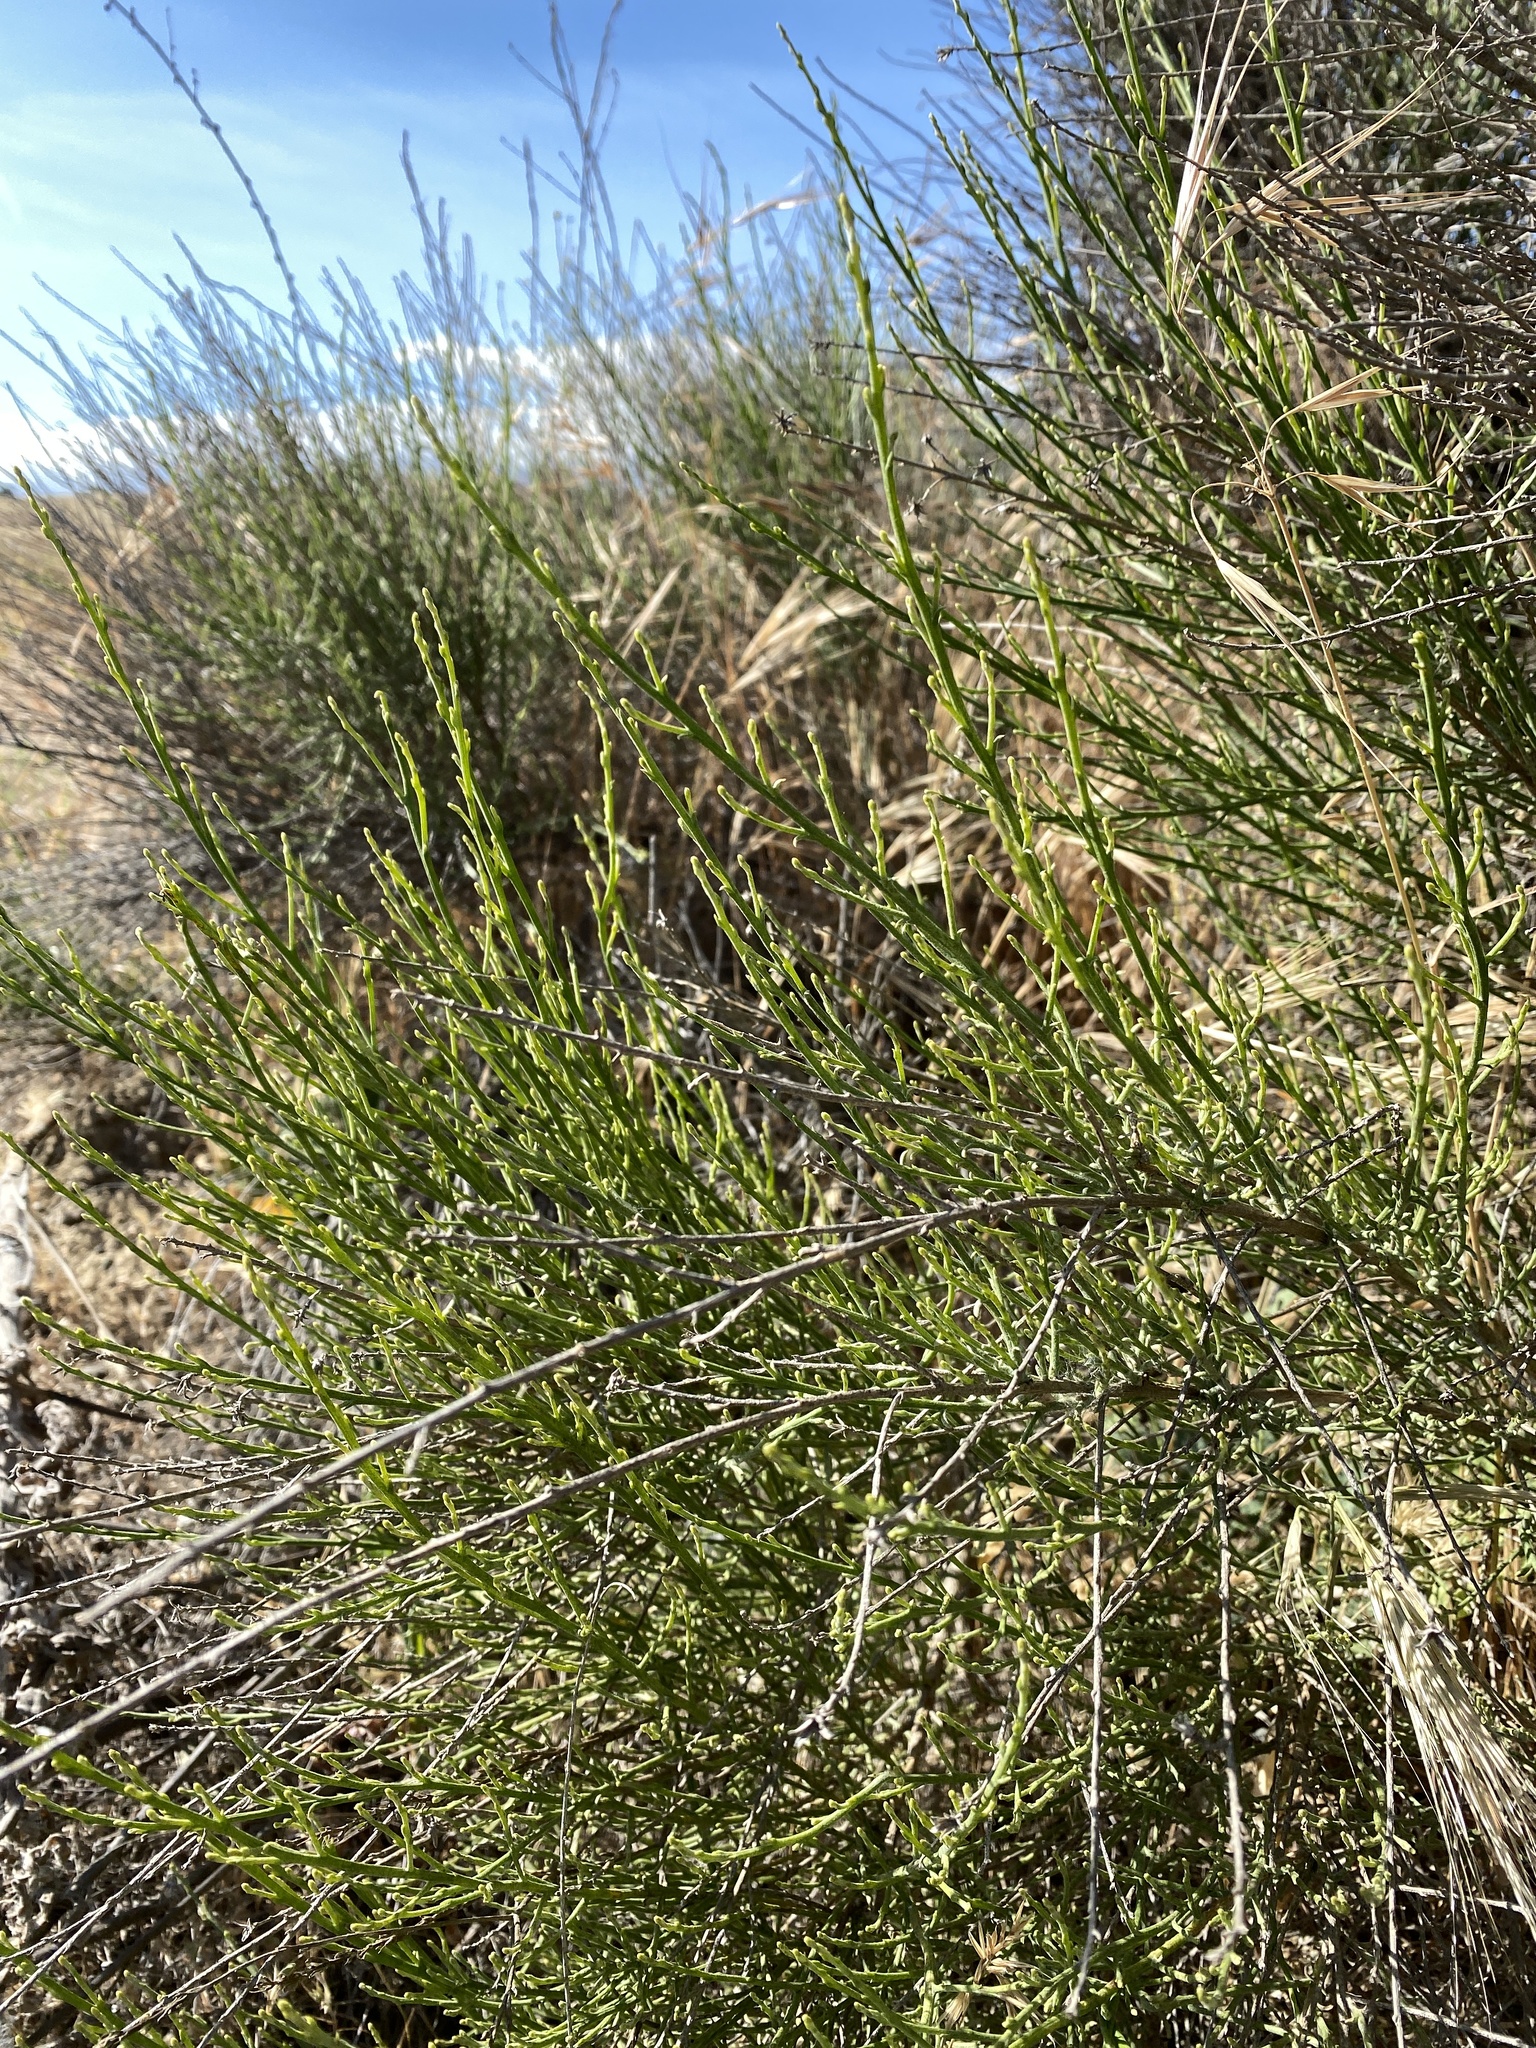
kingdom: Plantae
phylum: Tracheophyta
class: Magnoliopsida
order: Asterales
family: Asteraceae
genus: Lepidospartum
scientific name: Lepidospartum squamatum
